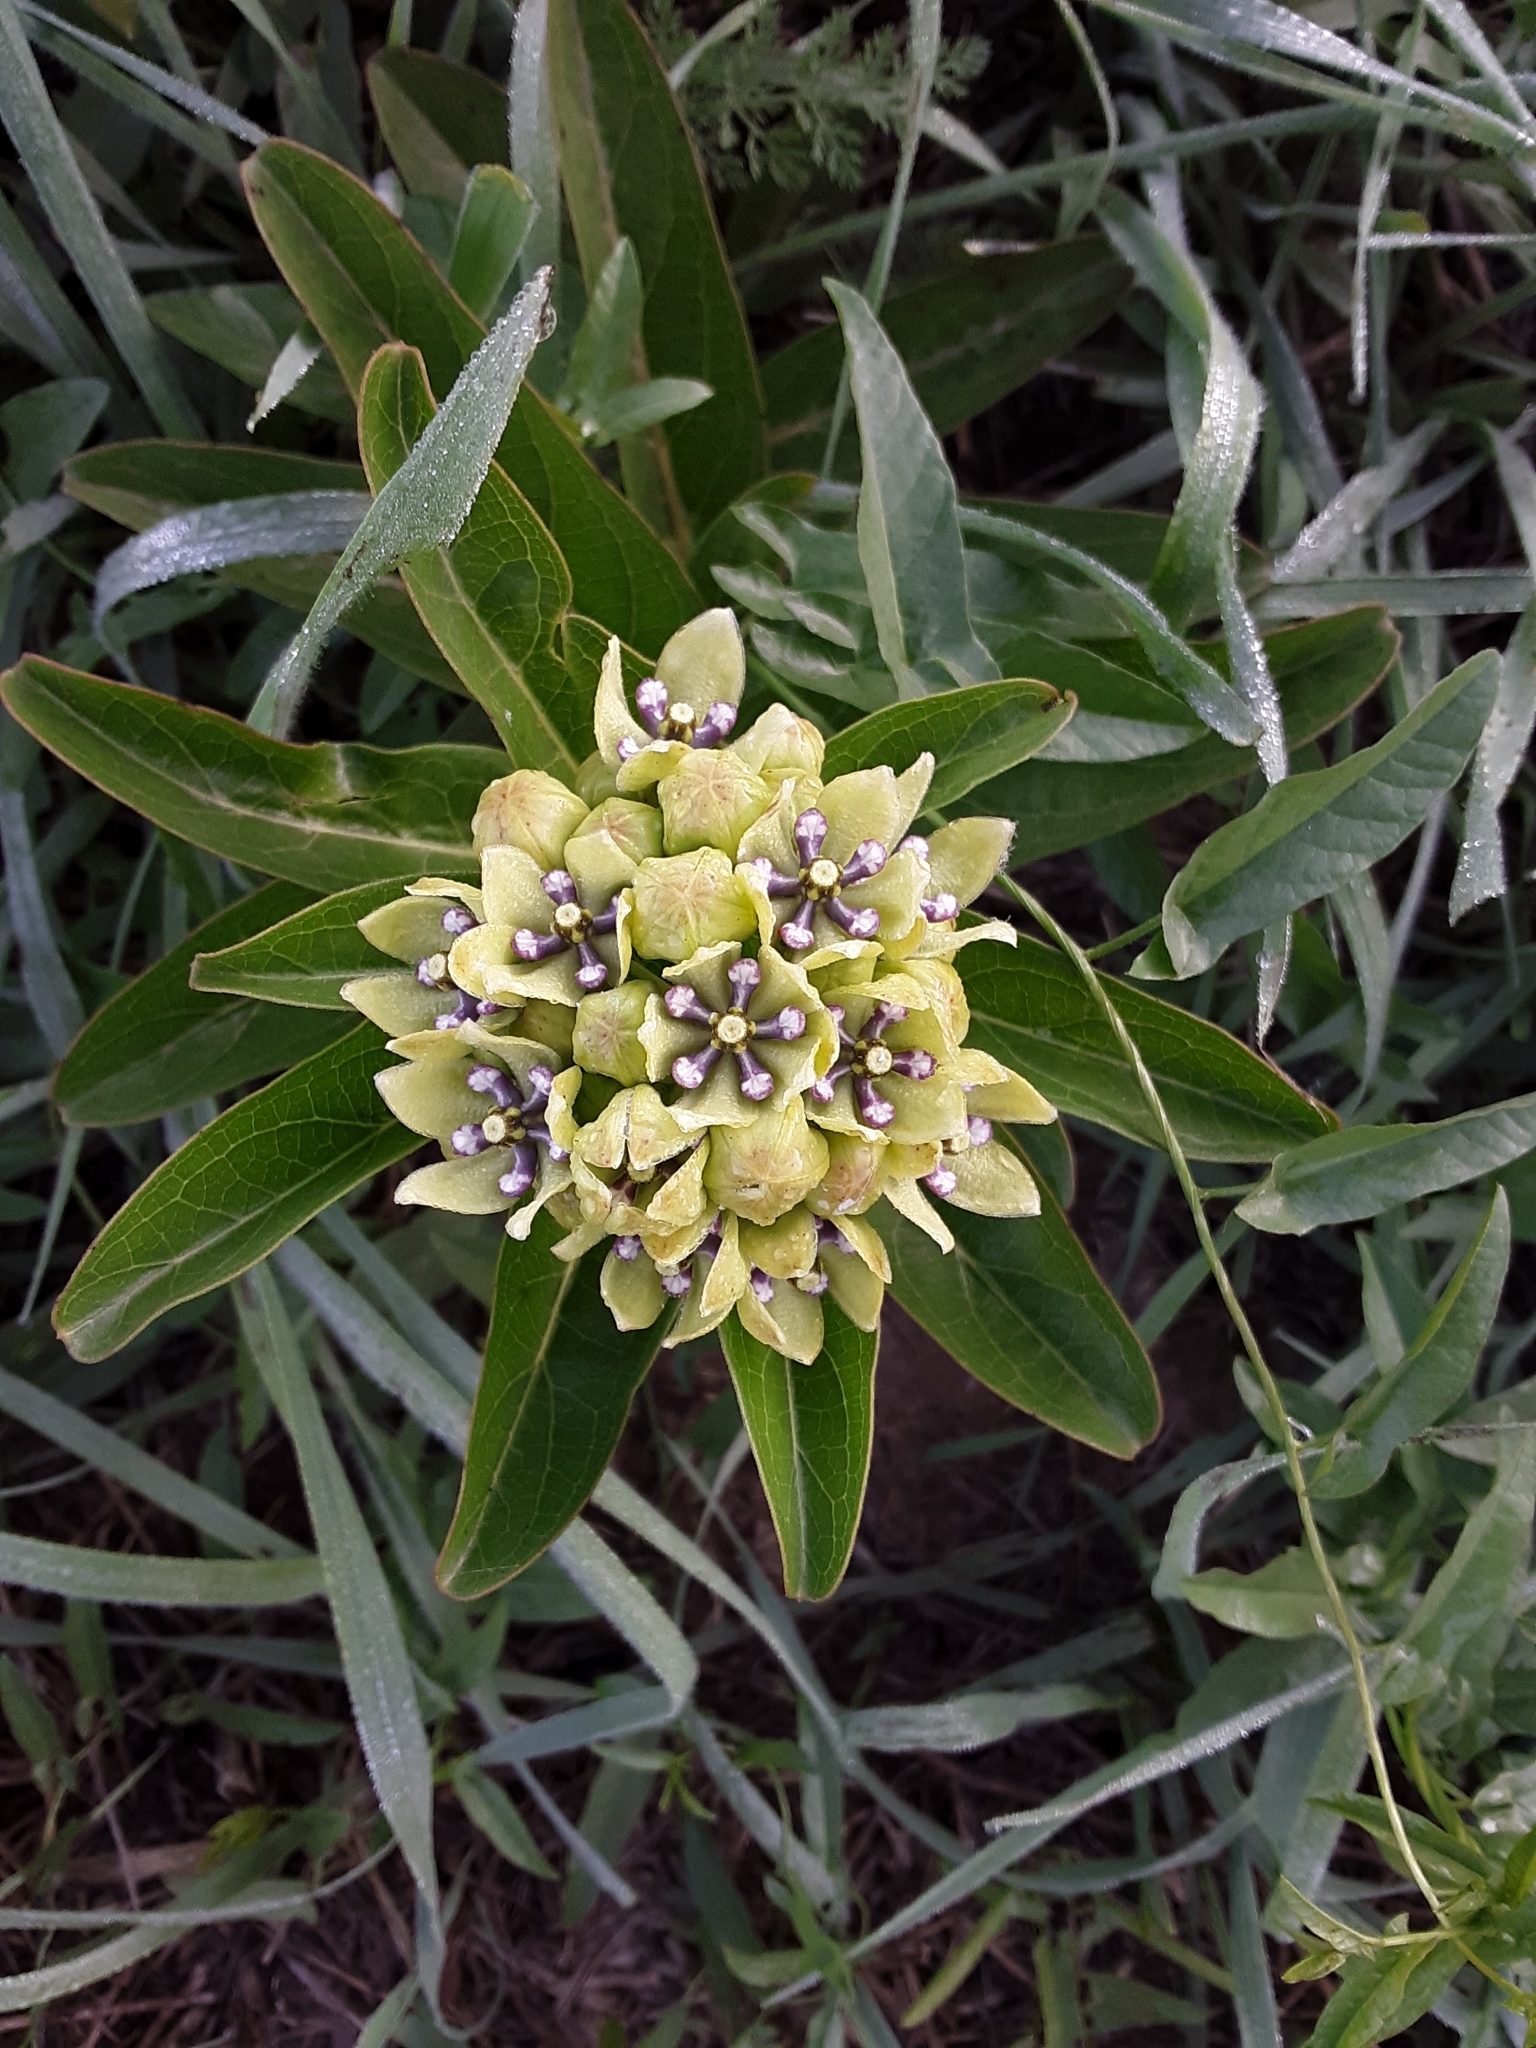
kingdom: Plantae
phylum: Tracheophyta
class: Magnoliopsida
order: Gentianales
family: Apocynaceae
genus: Asclepias
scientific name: Asclepias viridis
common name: Antelope-horns
